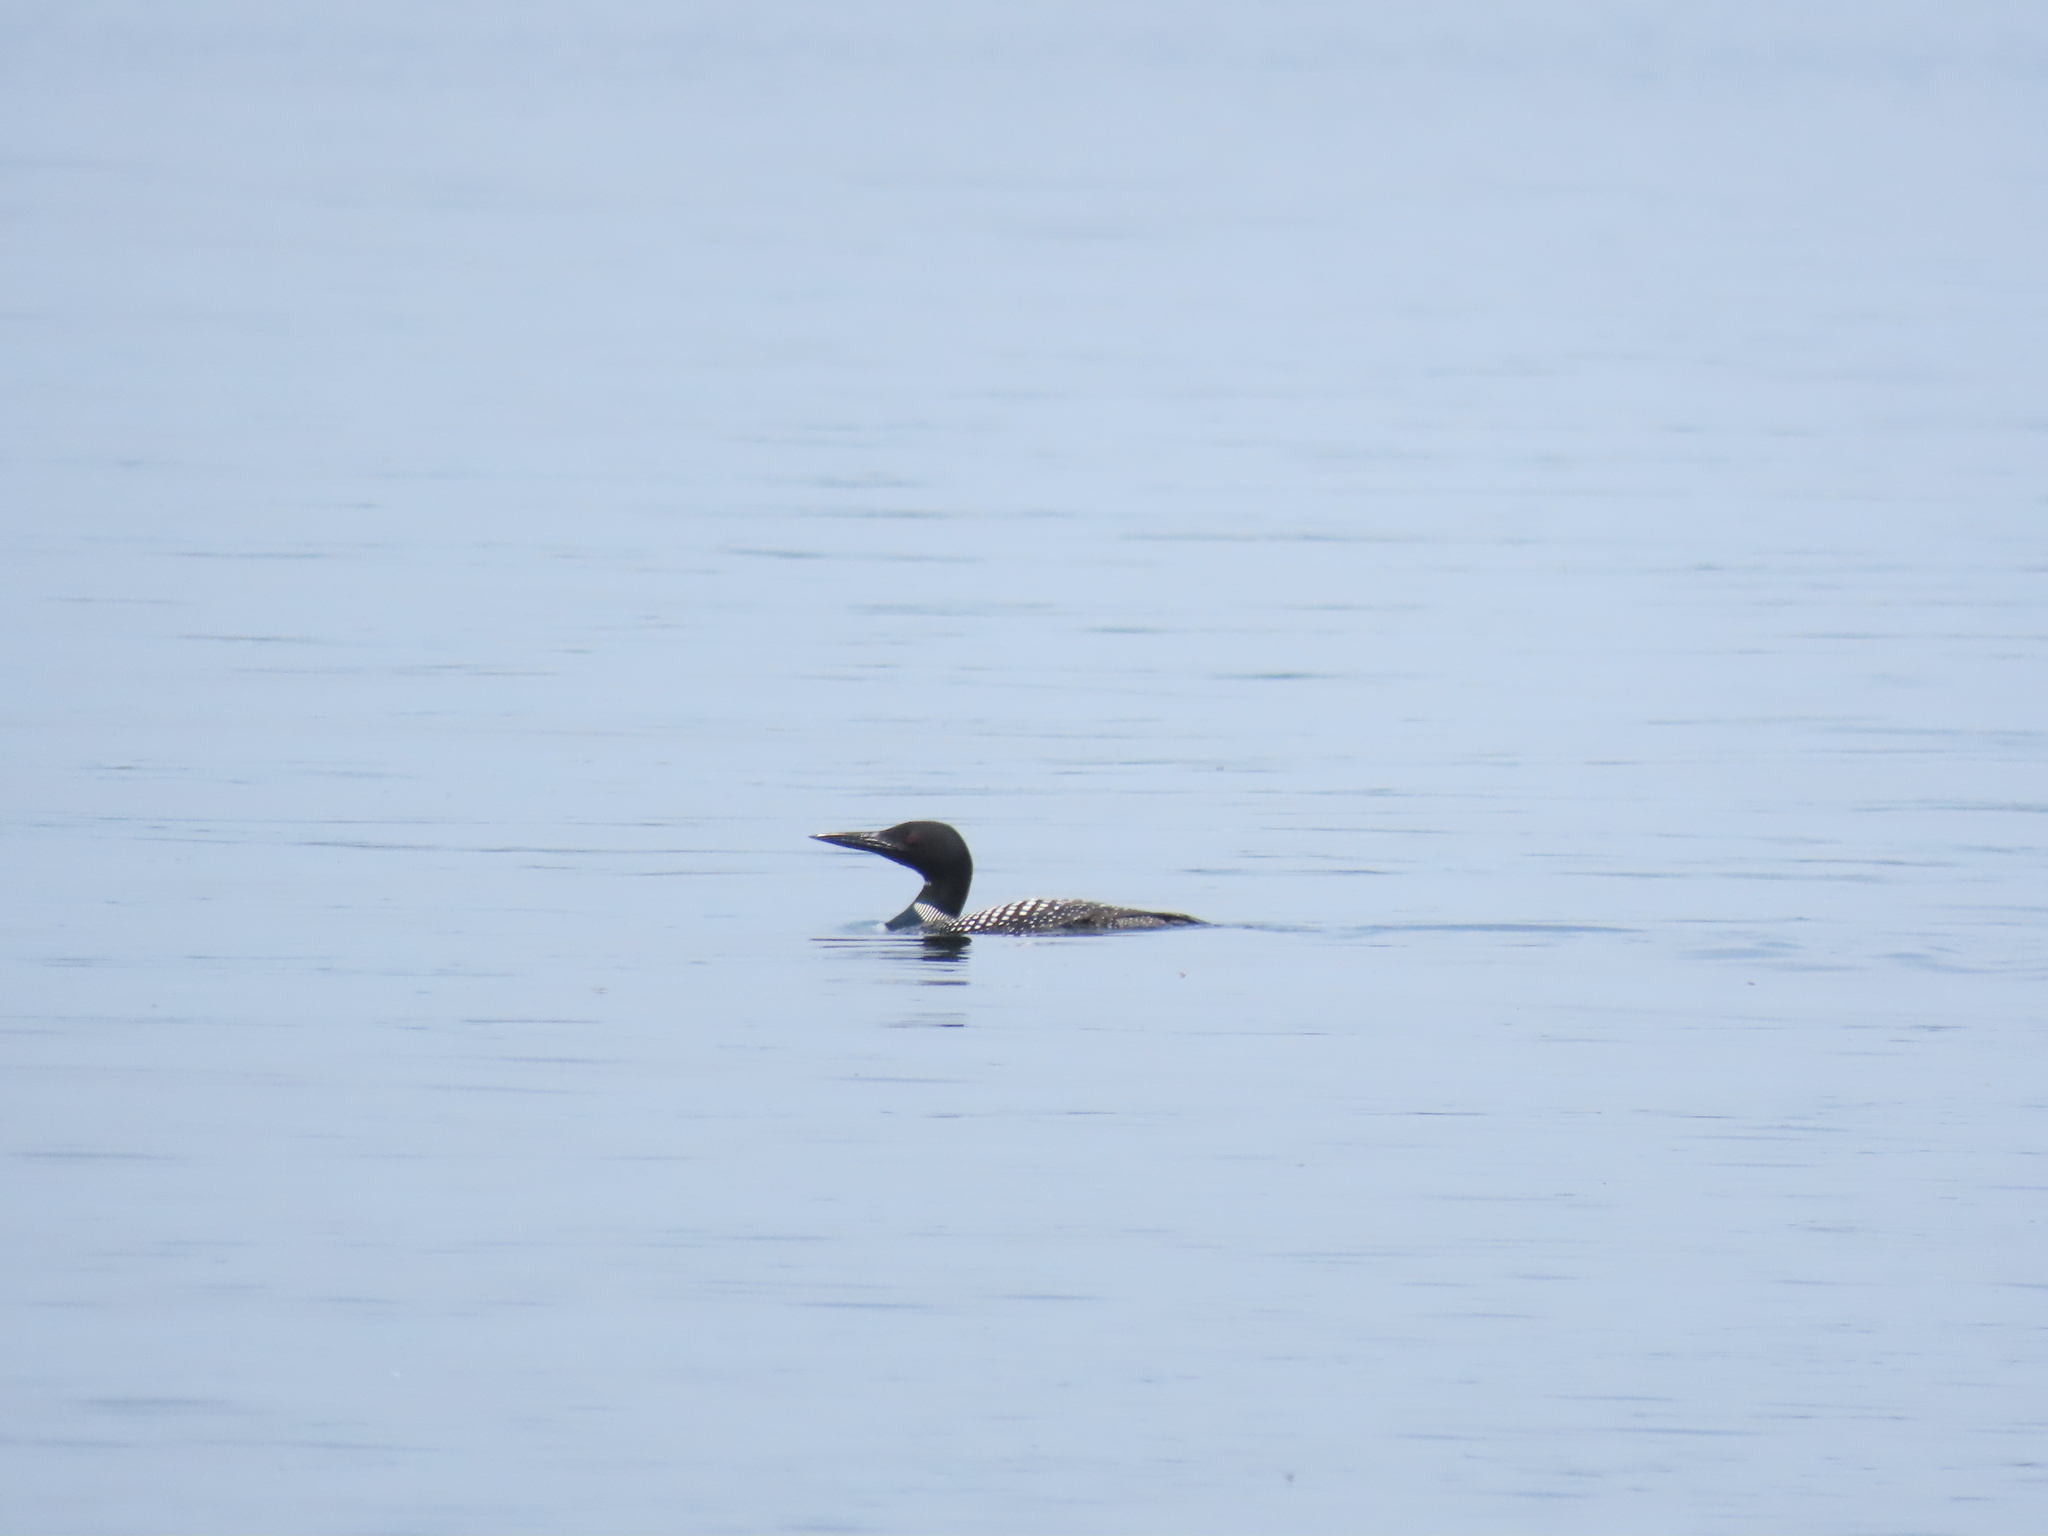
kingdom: Animalia
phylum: Chordata
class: Aves
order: Gaviiformes
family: Gaviidae
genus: Gavia
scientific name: Gavia immer
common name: Common loon
